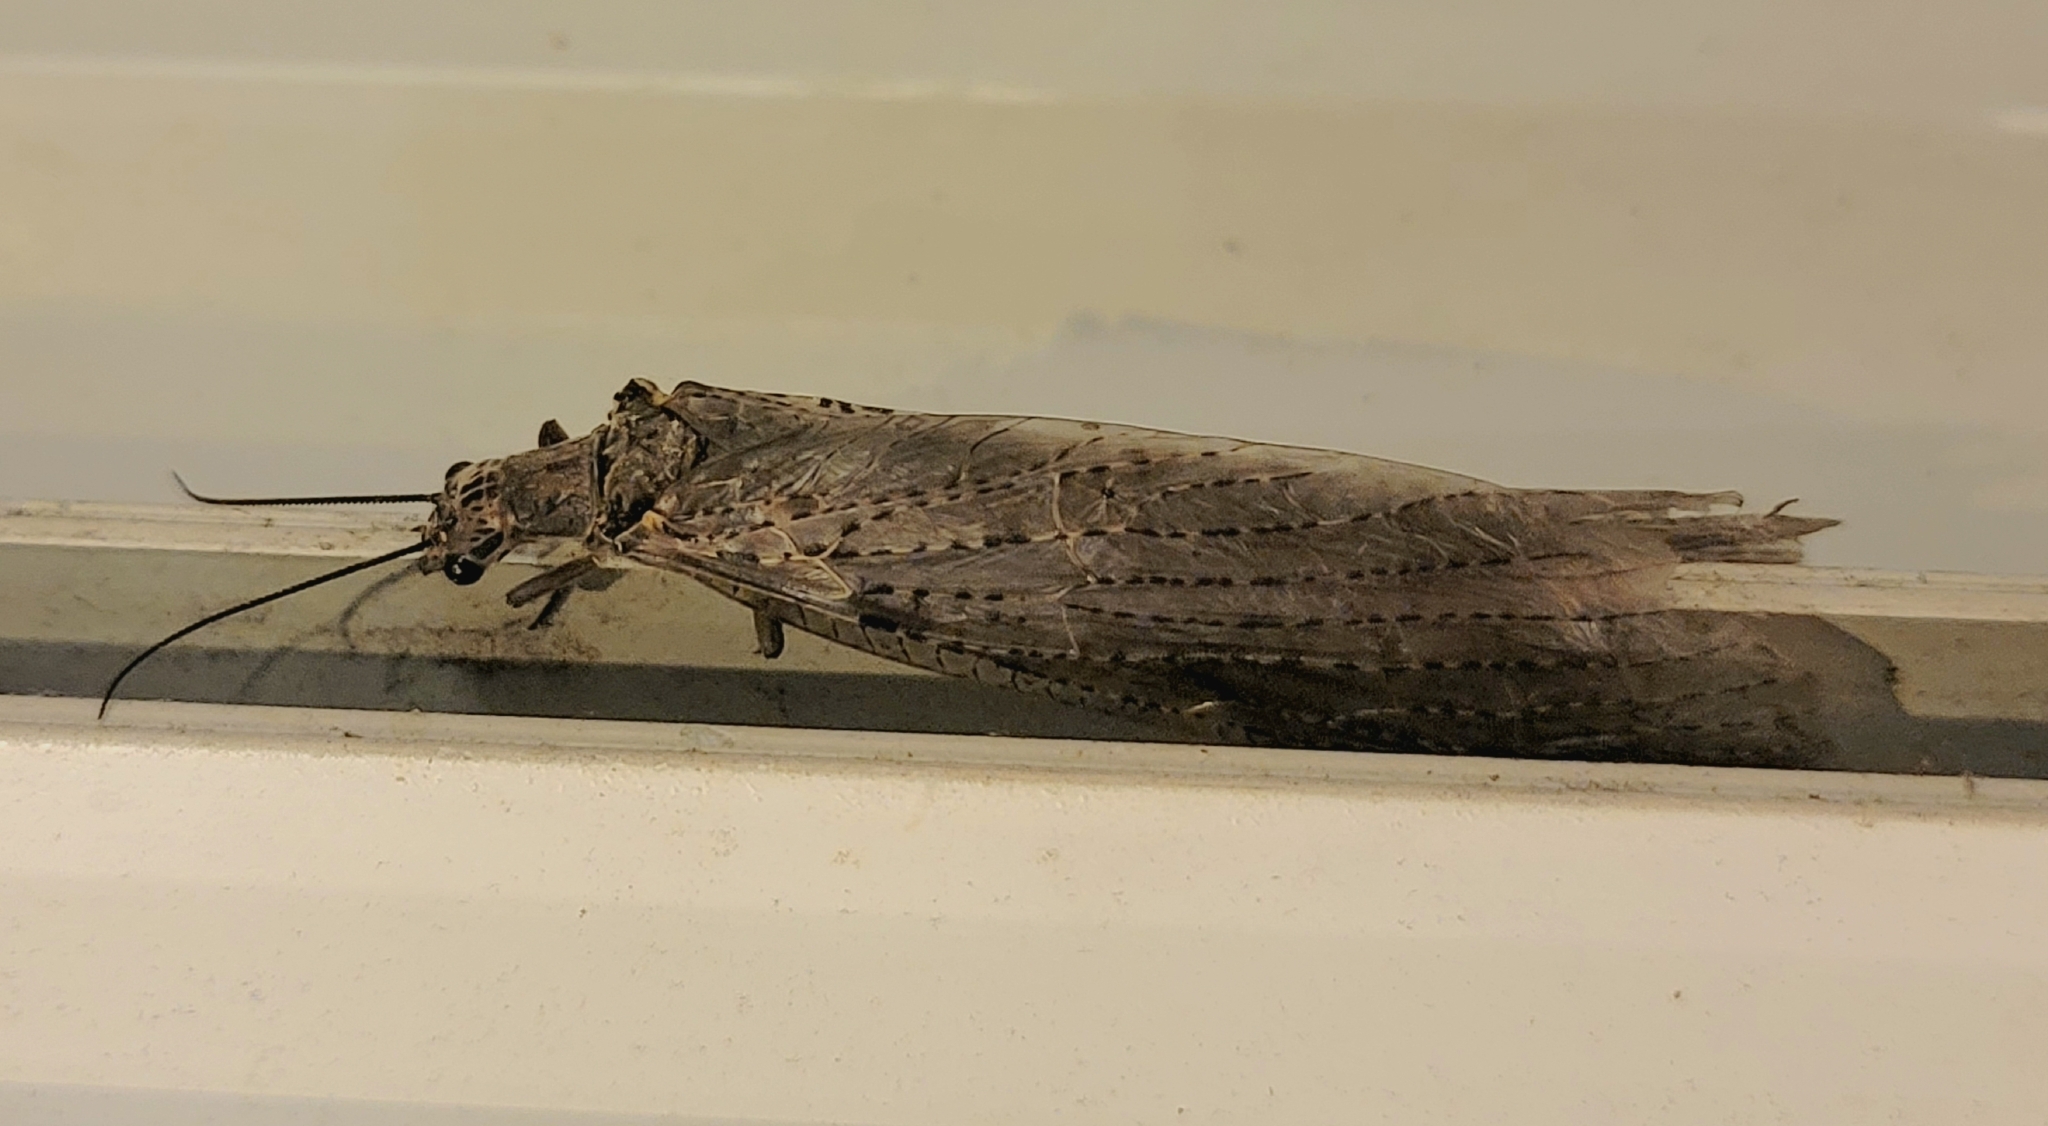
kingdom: Animalia
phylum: Arthropoda
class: Insecta
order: Megaloptera
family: Corydalidae
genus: Chauliodes
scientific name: Chauliodes rastricornis
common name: Spring fishfly
